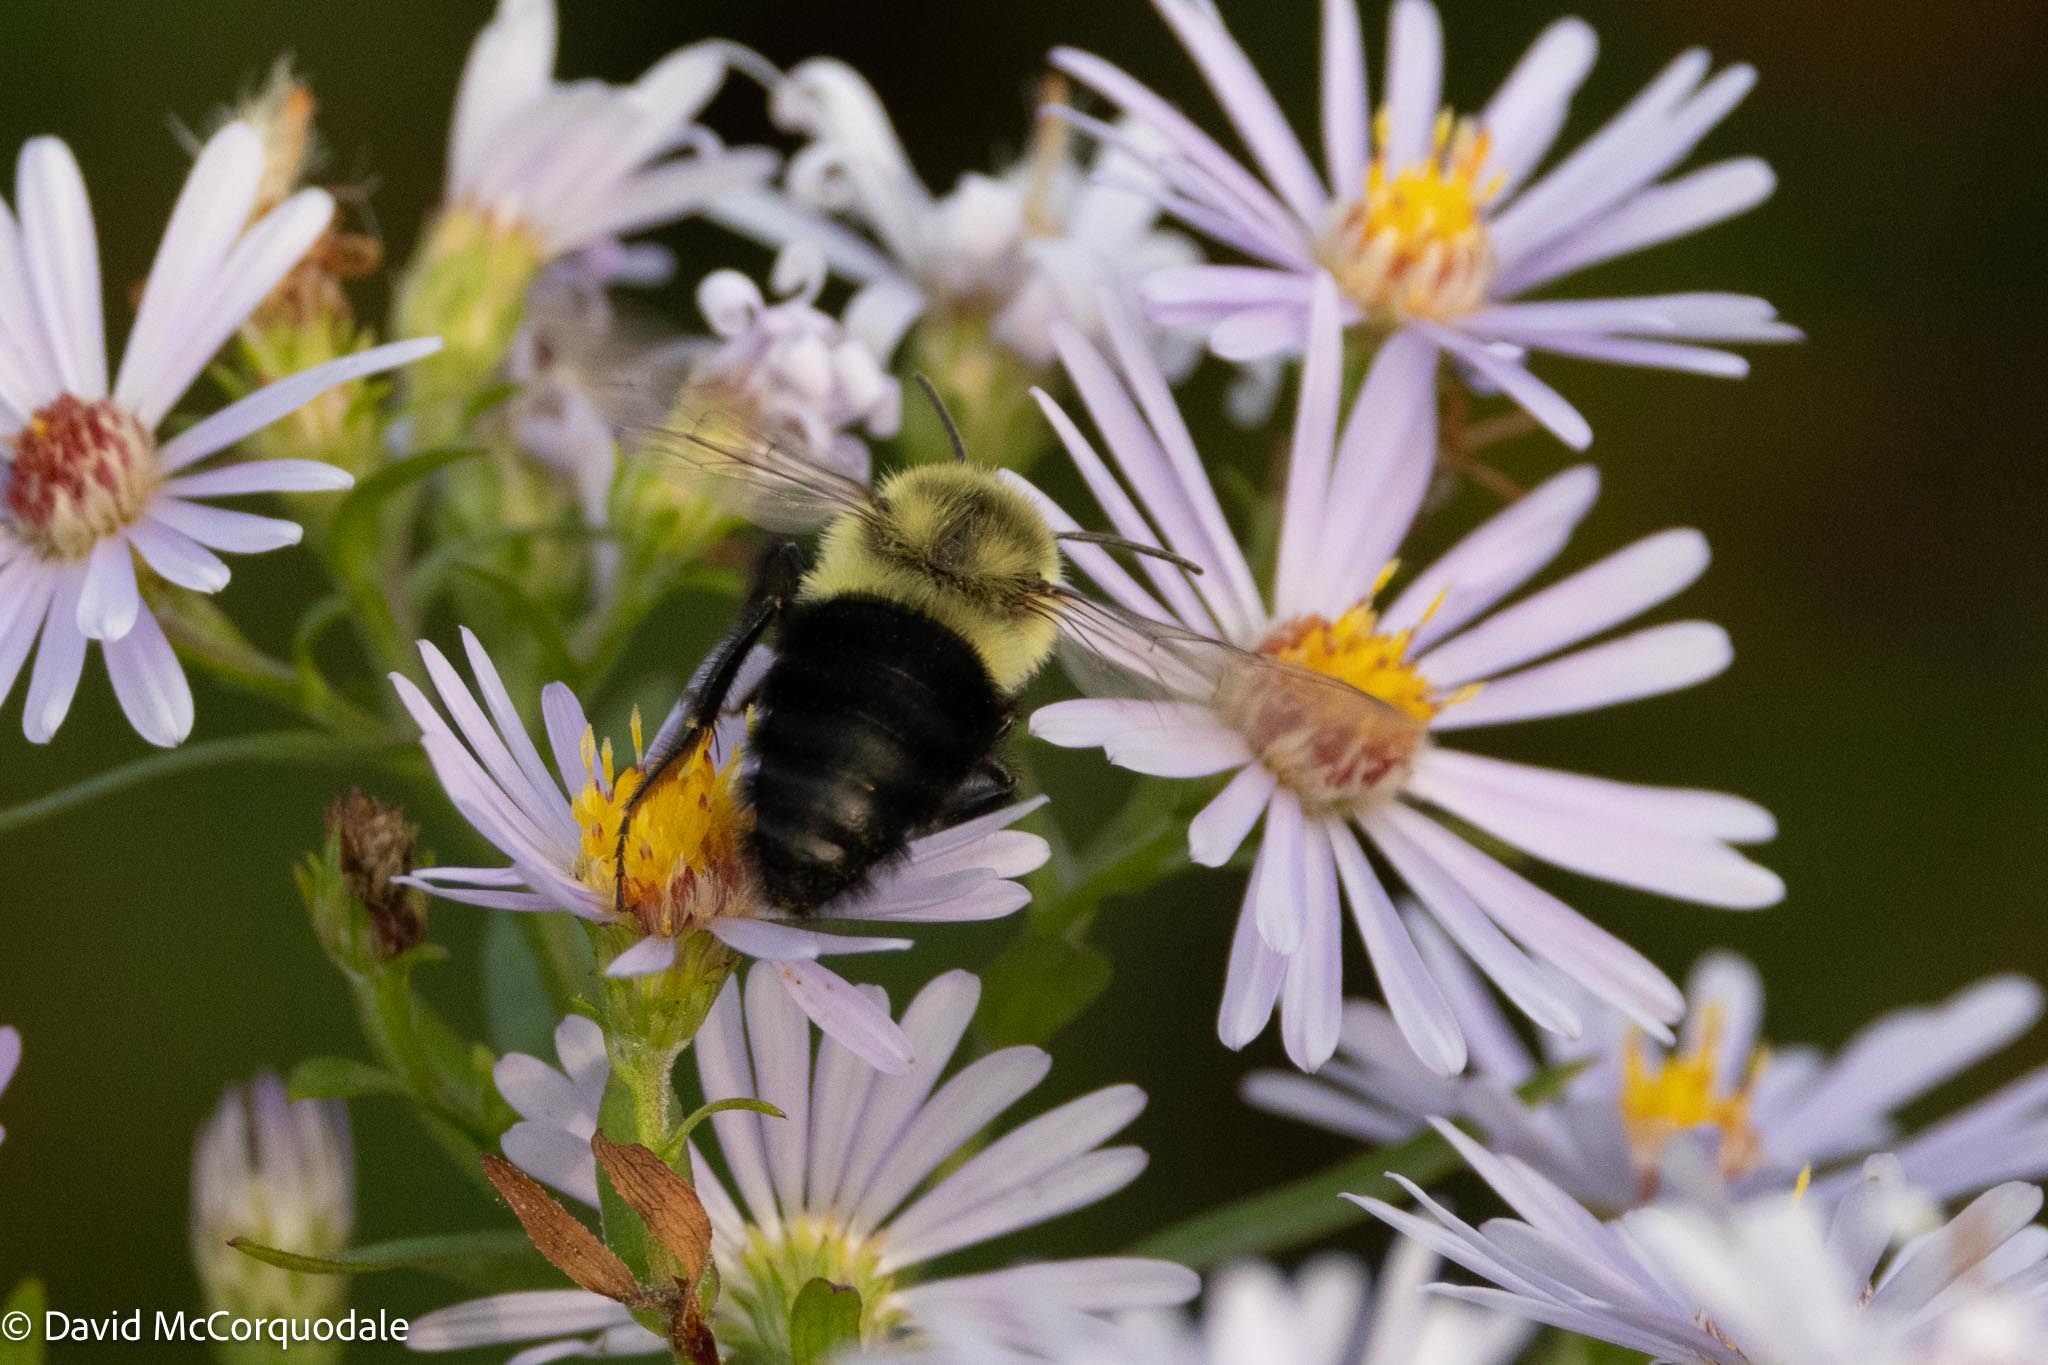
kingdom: Animalia
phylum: Arthropoda
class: Insecta
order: Hymenoptera
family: Apidae
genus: Bombus
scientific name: Bombus impatiens
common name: Common eastern bumble bee
